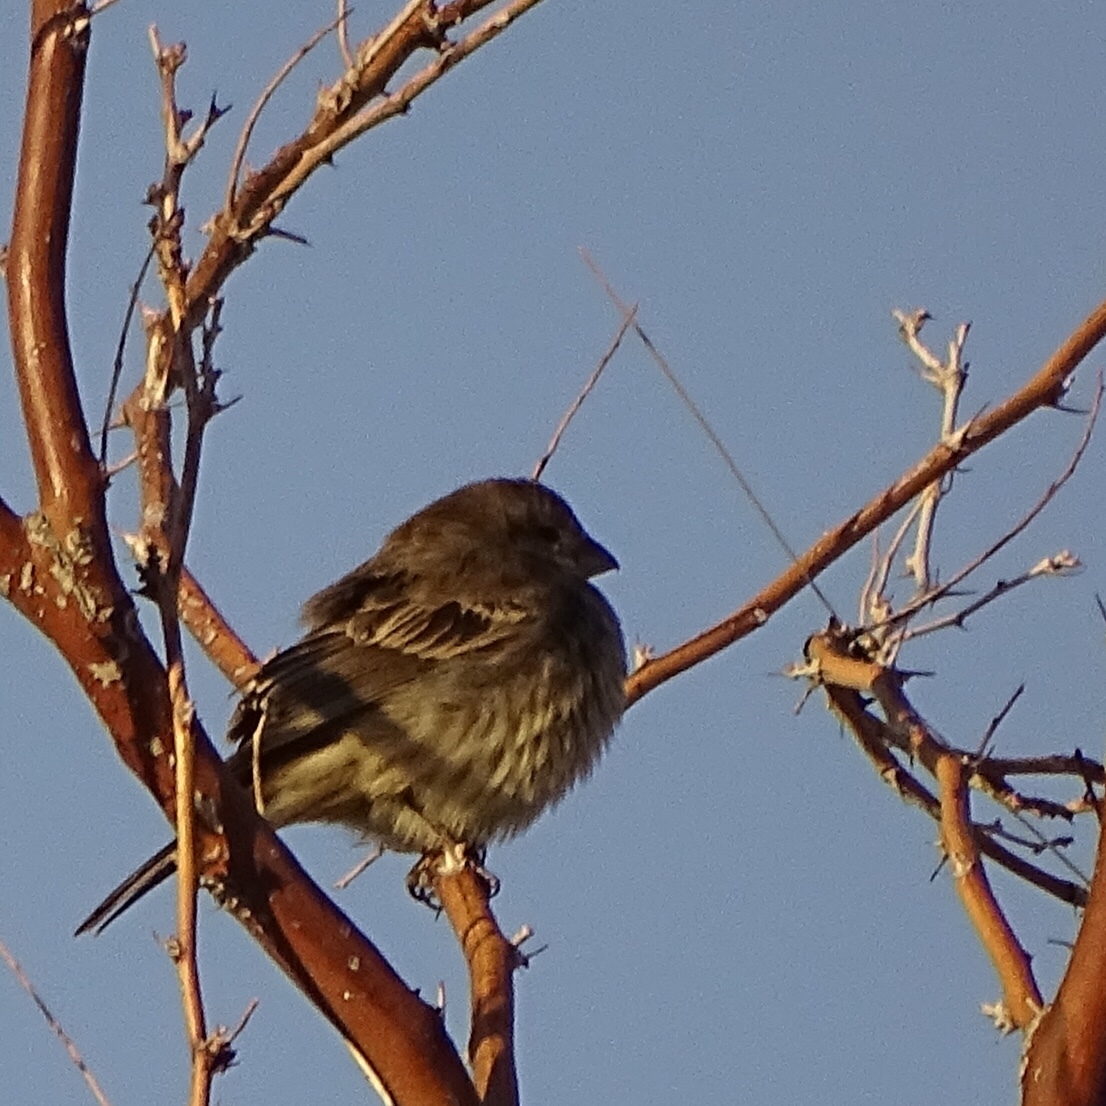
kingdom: Animalia
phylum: Chordata
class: Aves
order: Passeriformes
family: Fringillidae
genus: Haemorhous
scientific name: Haemorhous mexicanus
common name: House finch
